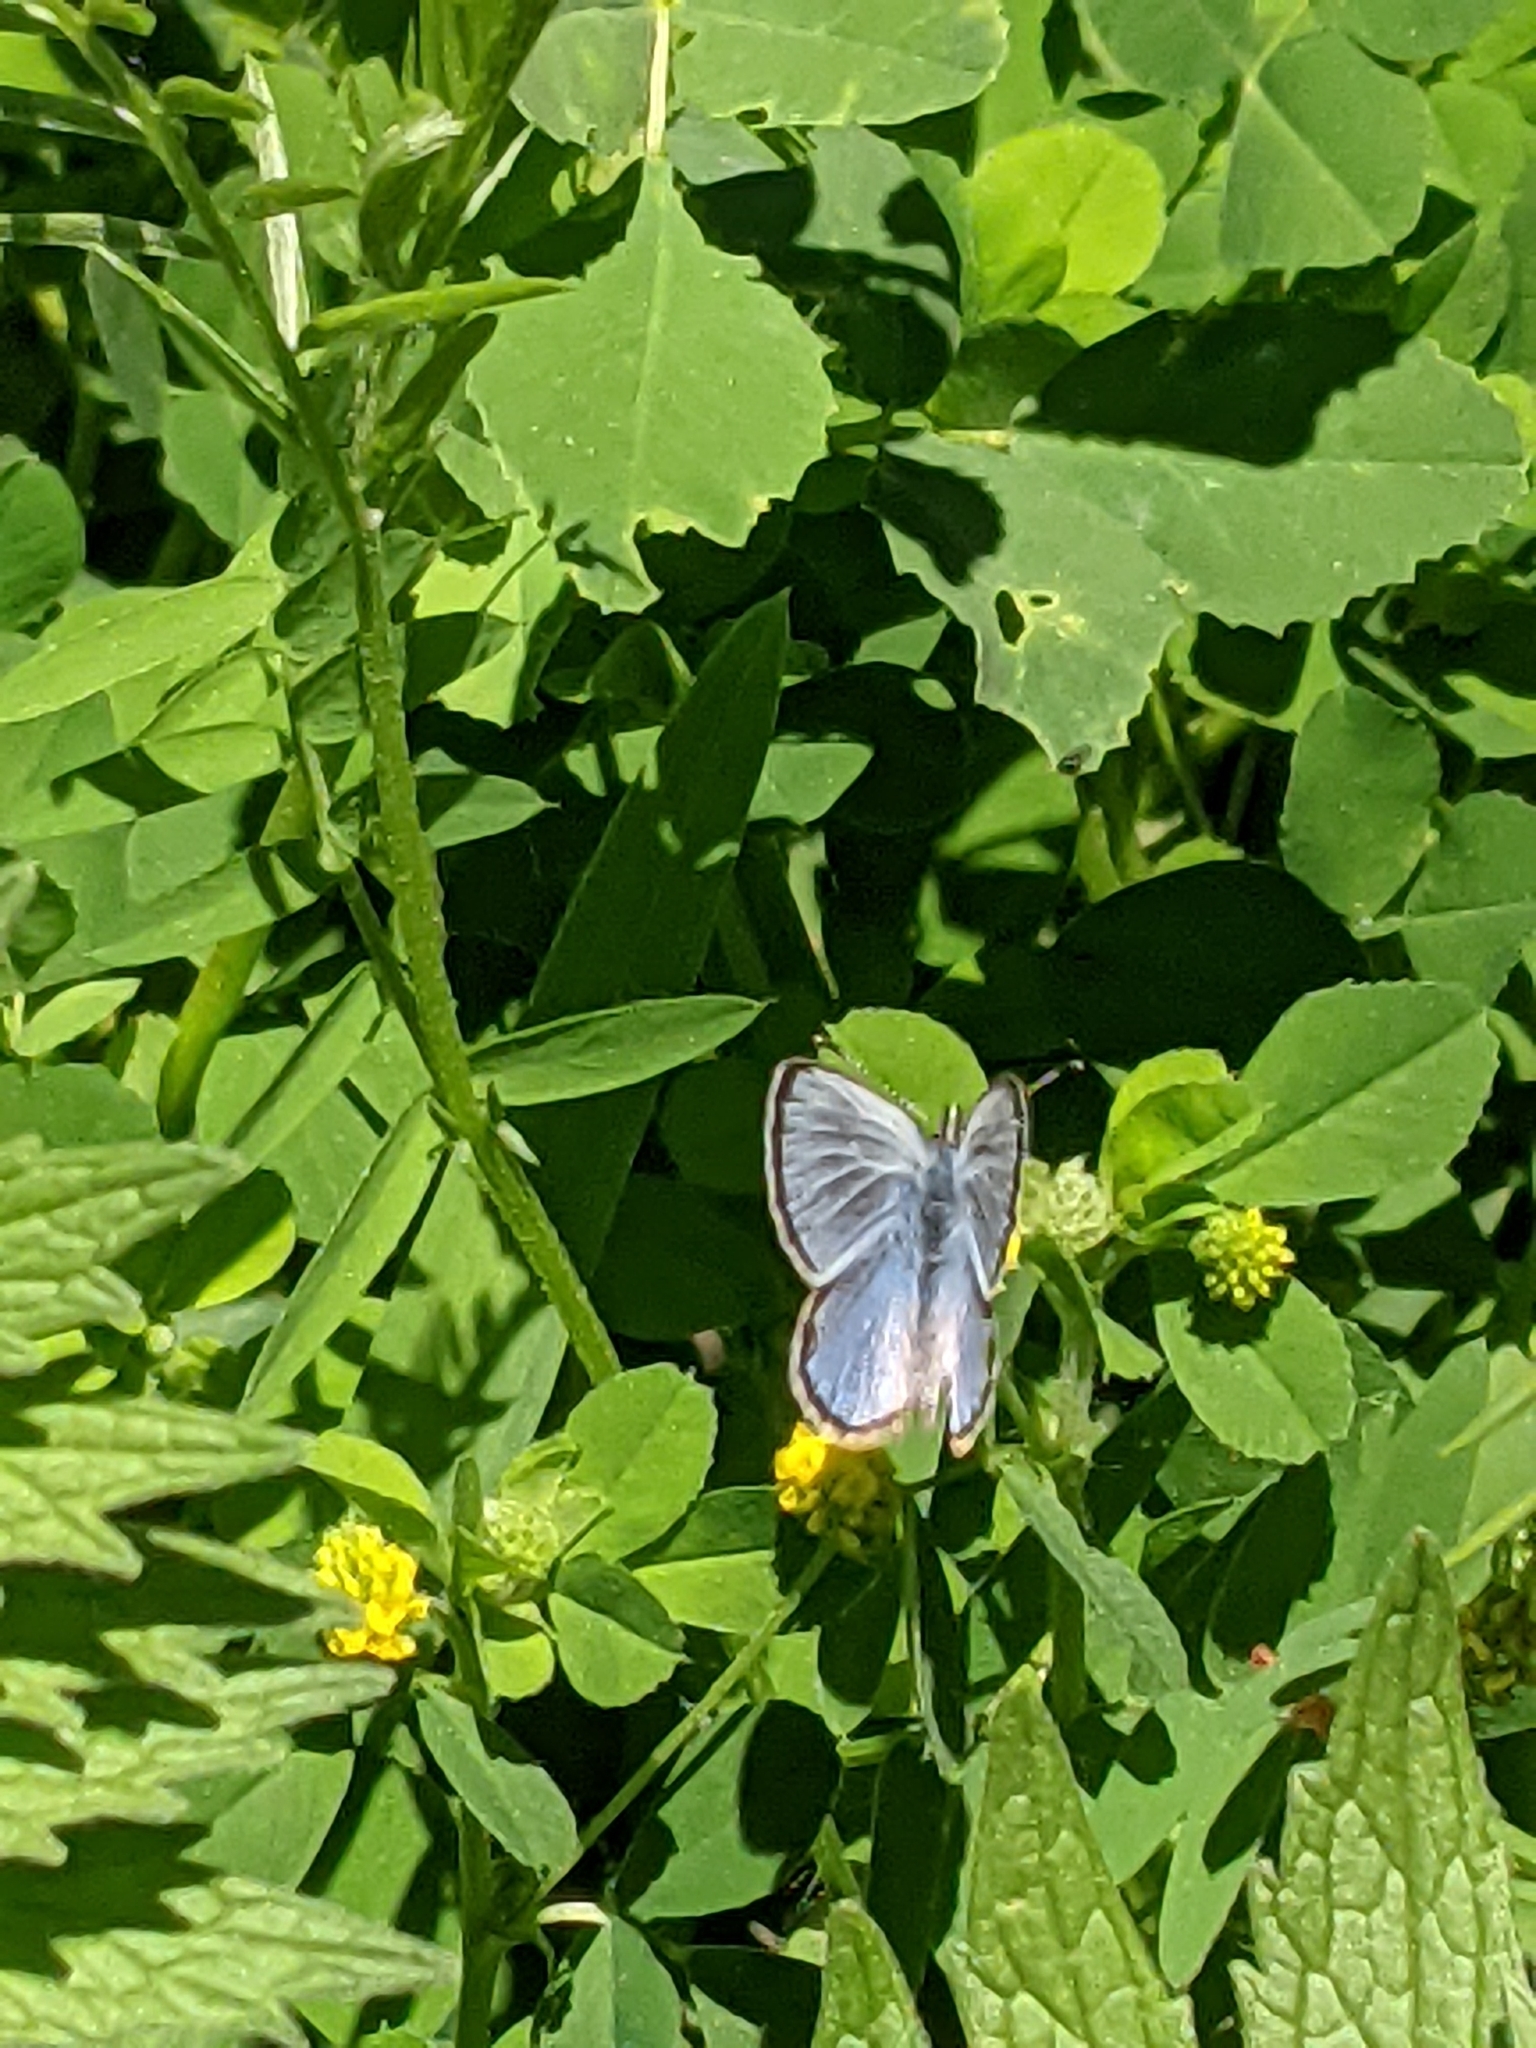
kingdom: Animalia
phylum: Arthropoda
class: Insecta
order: Lepidoptera
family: Lycaenidae
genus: Glaucopsyche
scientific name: Glaucopsyche lygdamus
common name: Silvery blue
